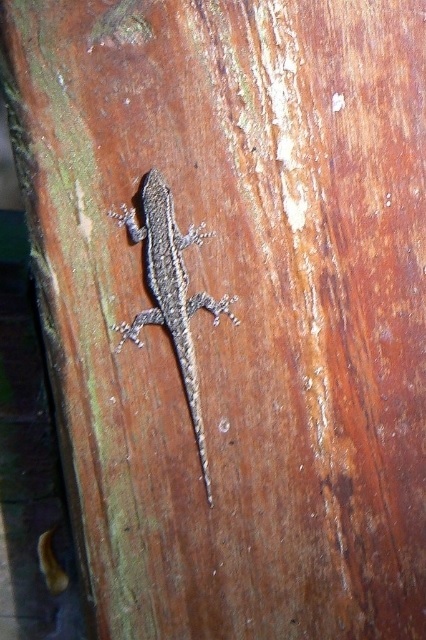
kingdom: Animalia
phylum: Chordata
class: Squamata
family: Gekkonidae
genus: Lygodactylus
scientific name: Lygodactylus capensis
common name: Cape dwarf gecko
